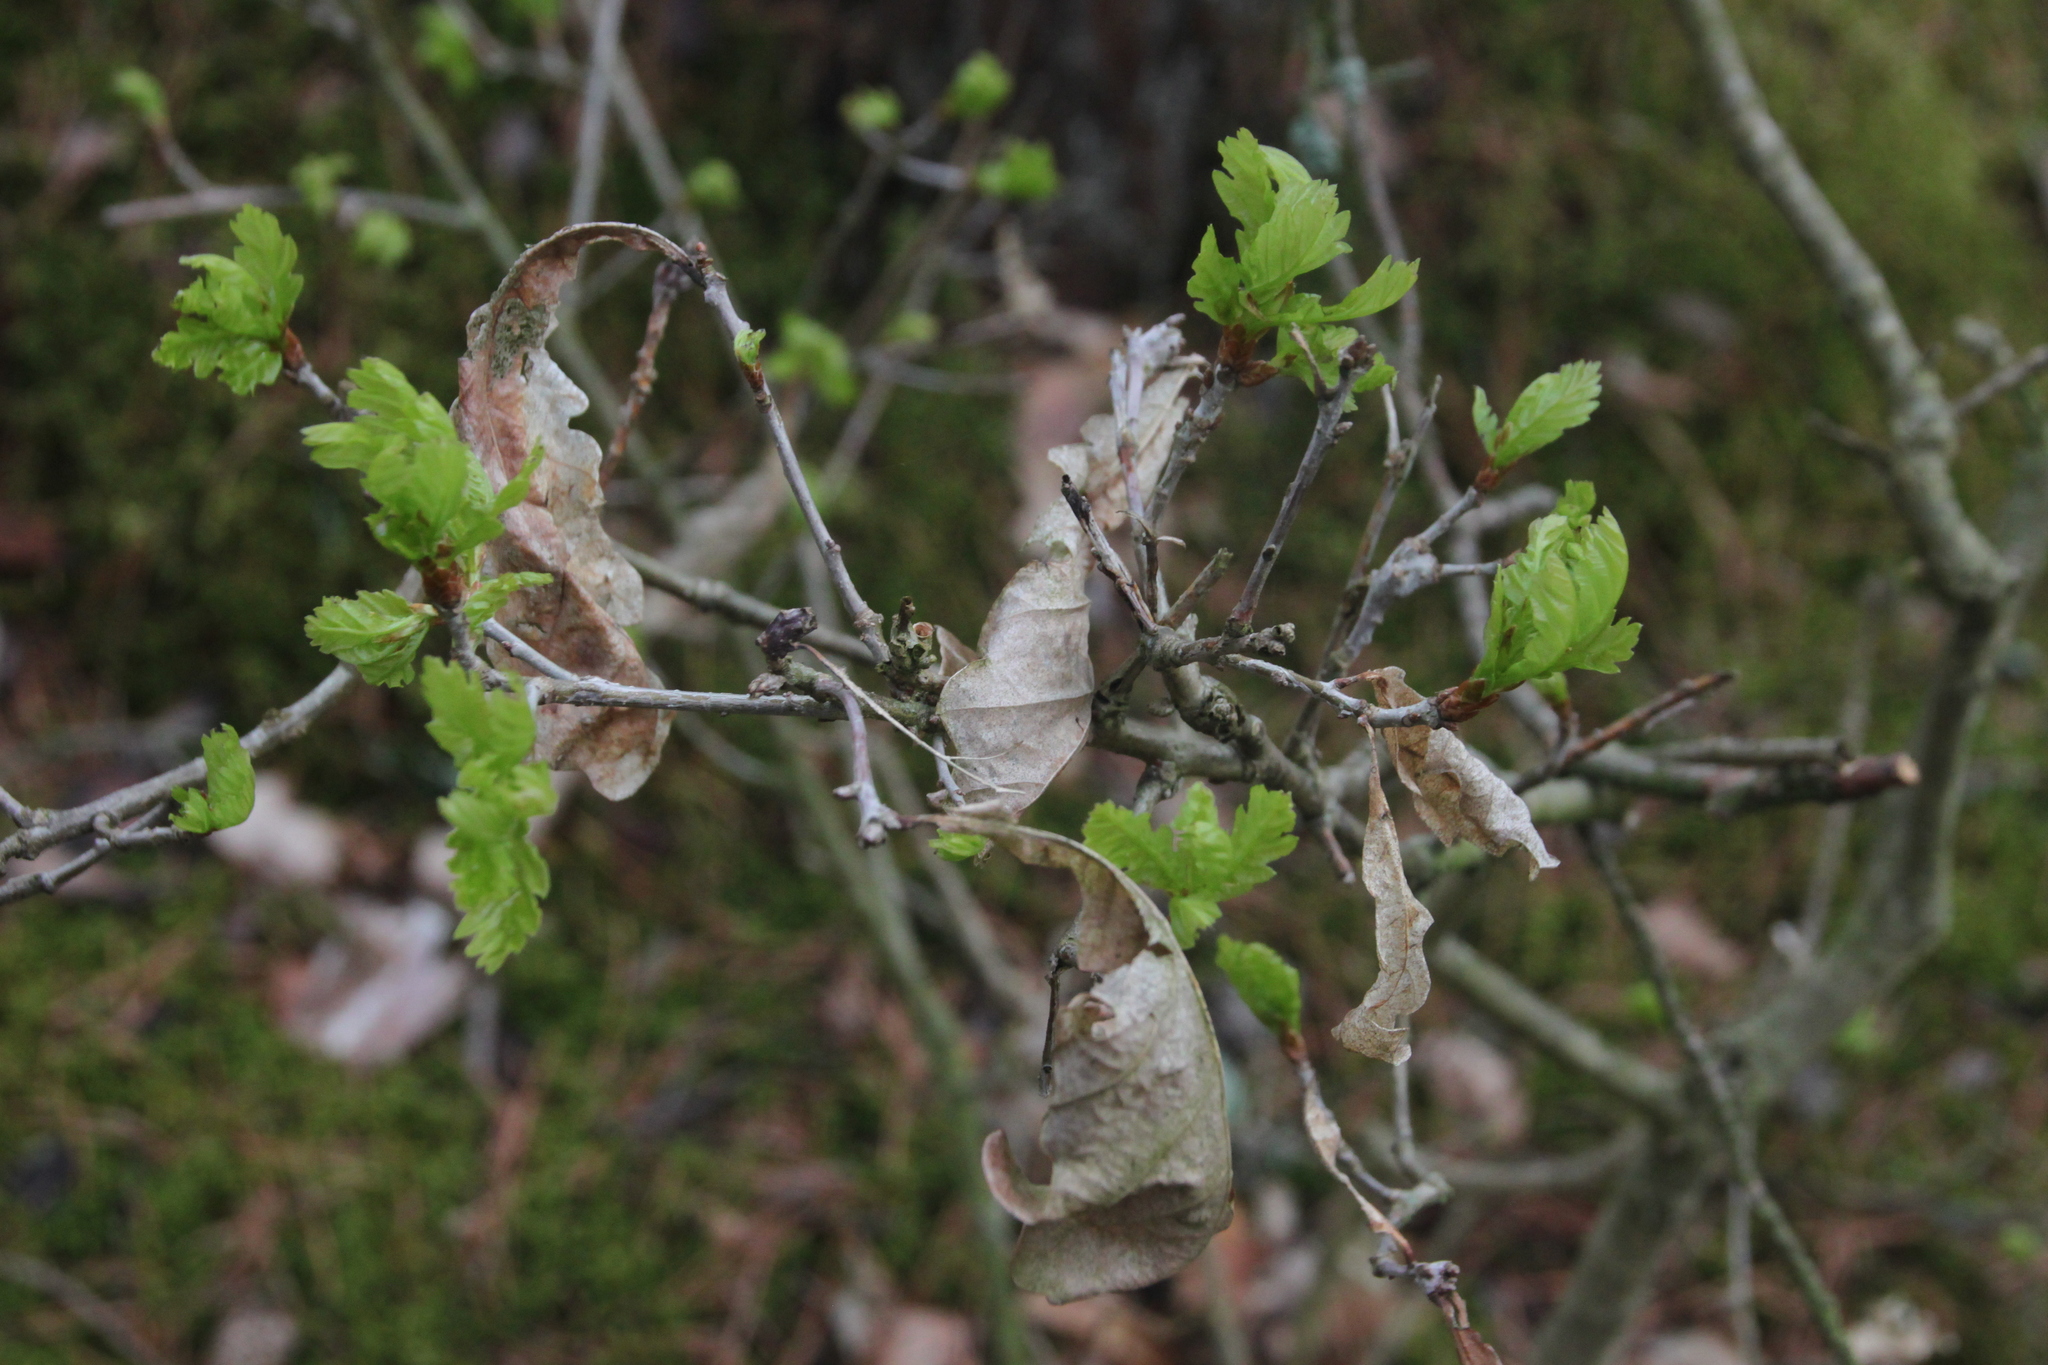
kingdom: Plantae
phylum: Tracheophyta
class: Magnoliopsida
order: Fagales
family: Fagaceae
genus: Quercus
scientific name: Quercus robur
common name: Pedunculate oak
